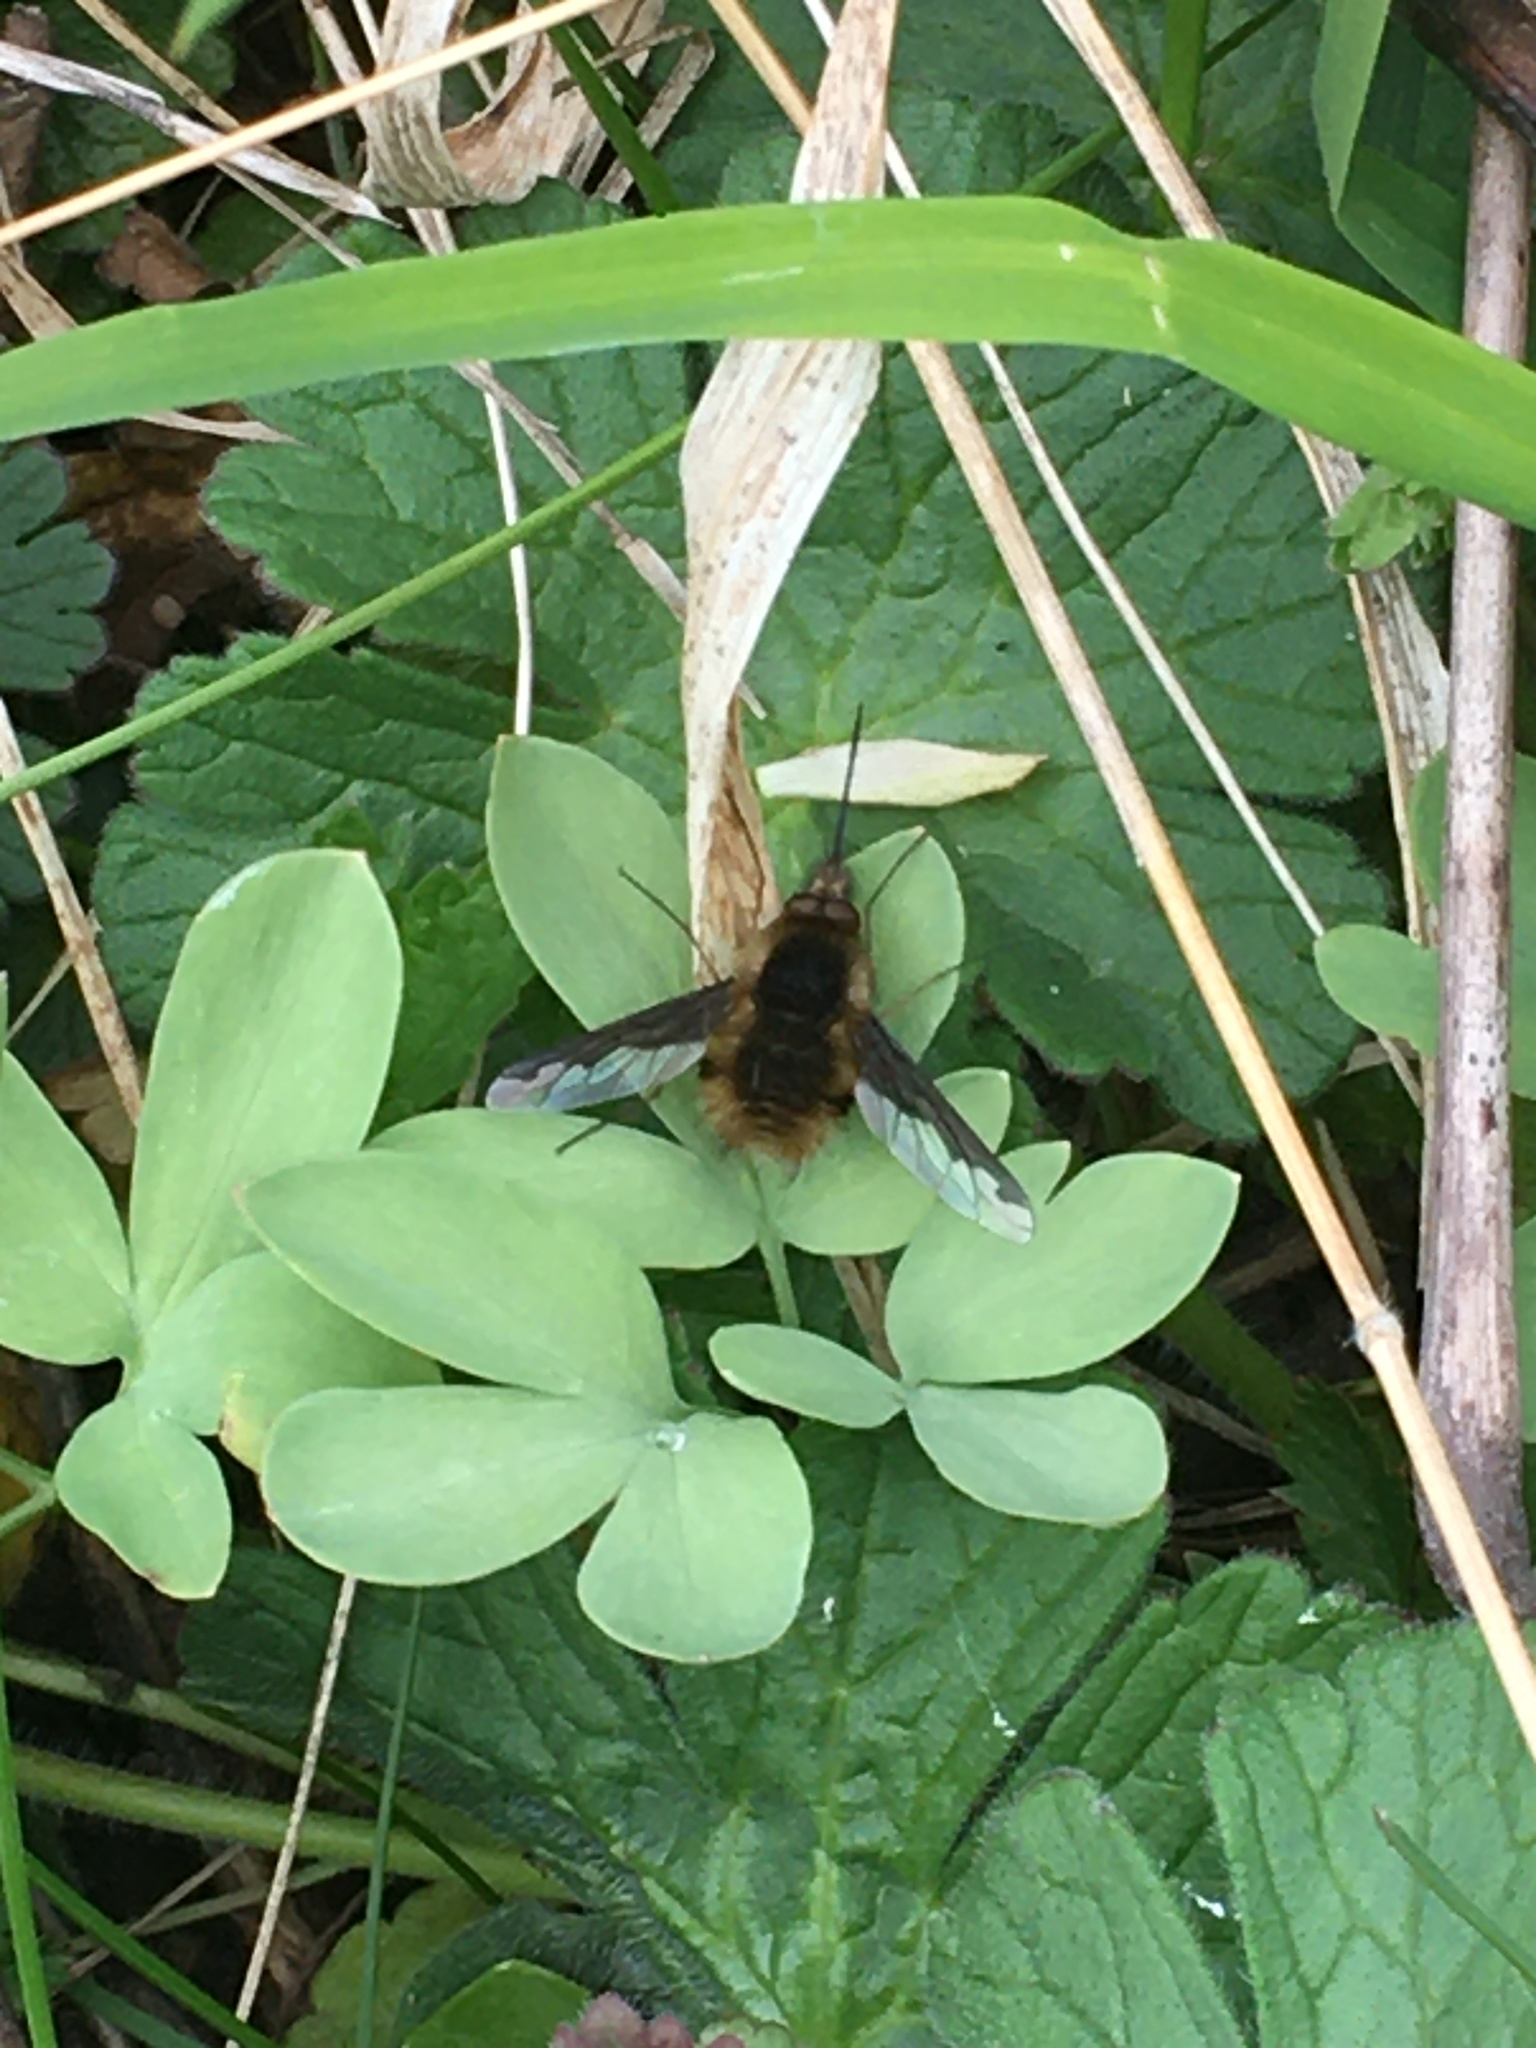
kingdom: Animalia
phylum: Arthropoda
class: Insecta
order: Diptera
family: Bombyliidae
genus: Bombylius
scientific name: Bombylius major
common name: Bee fly
